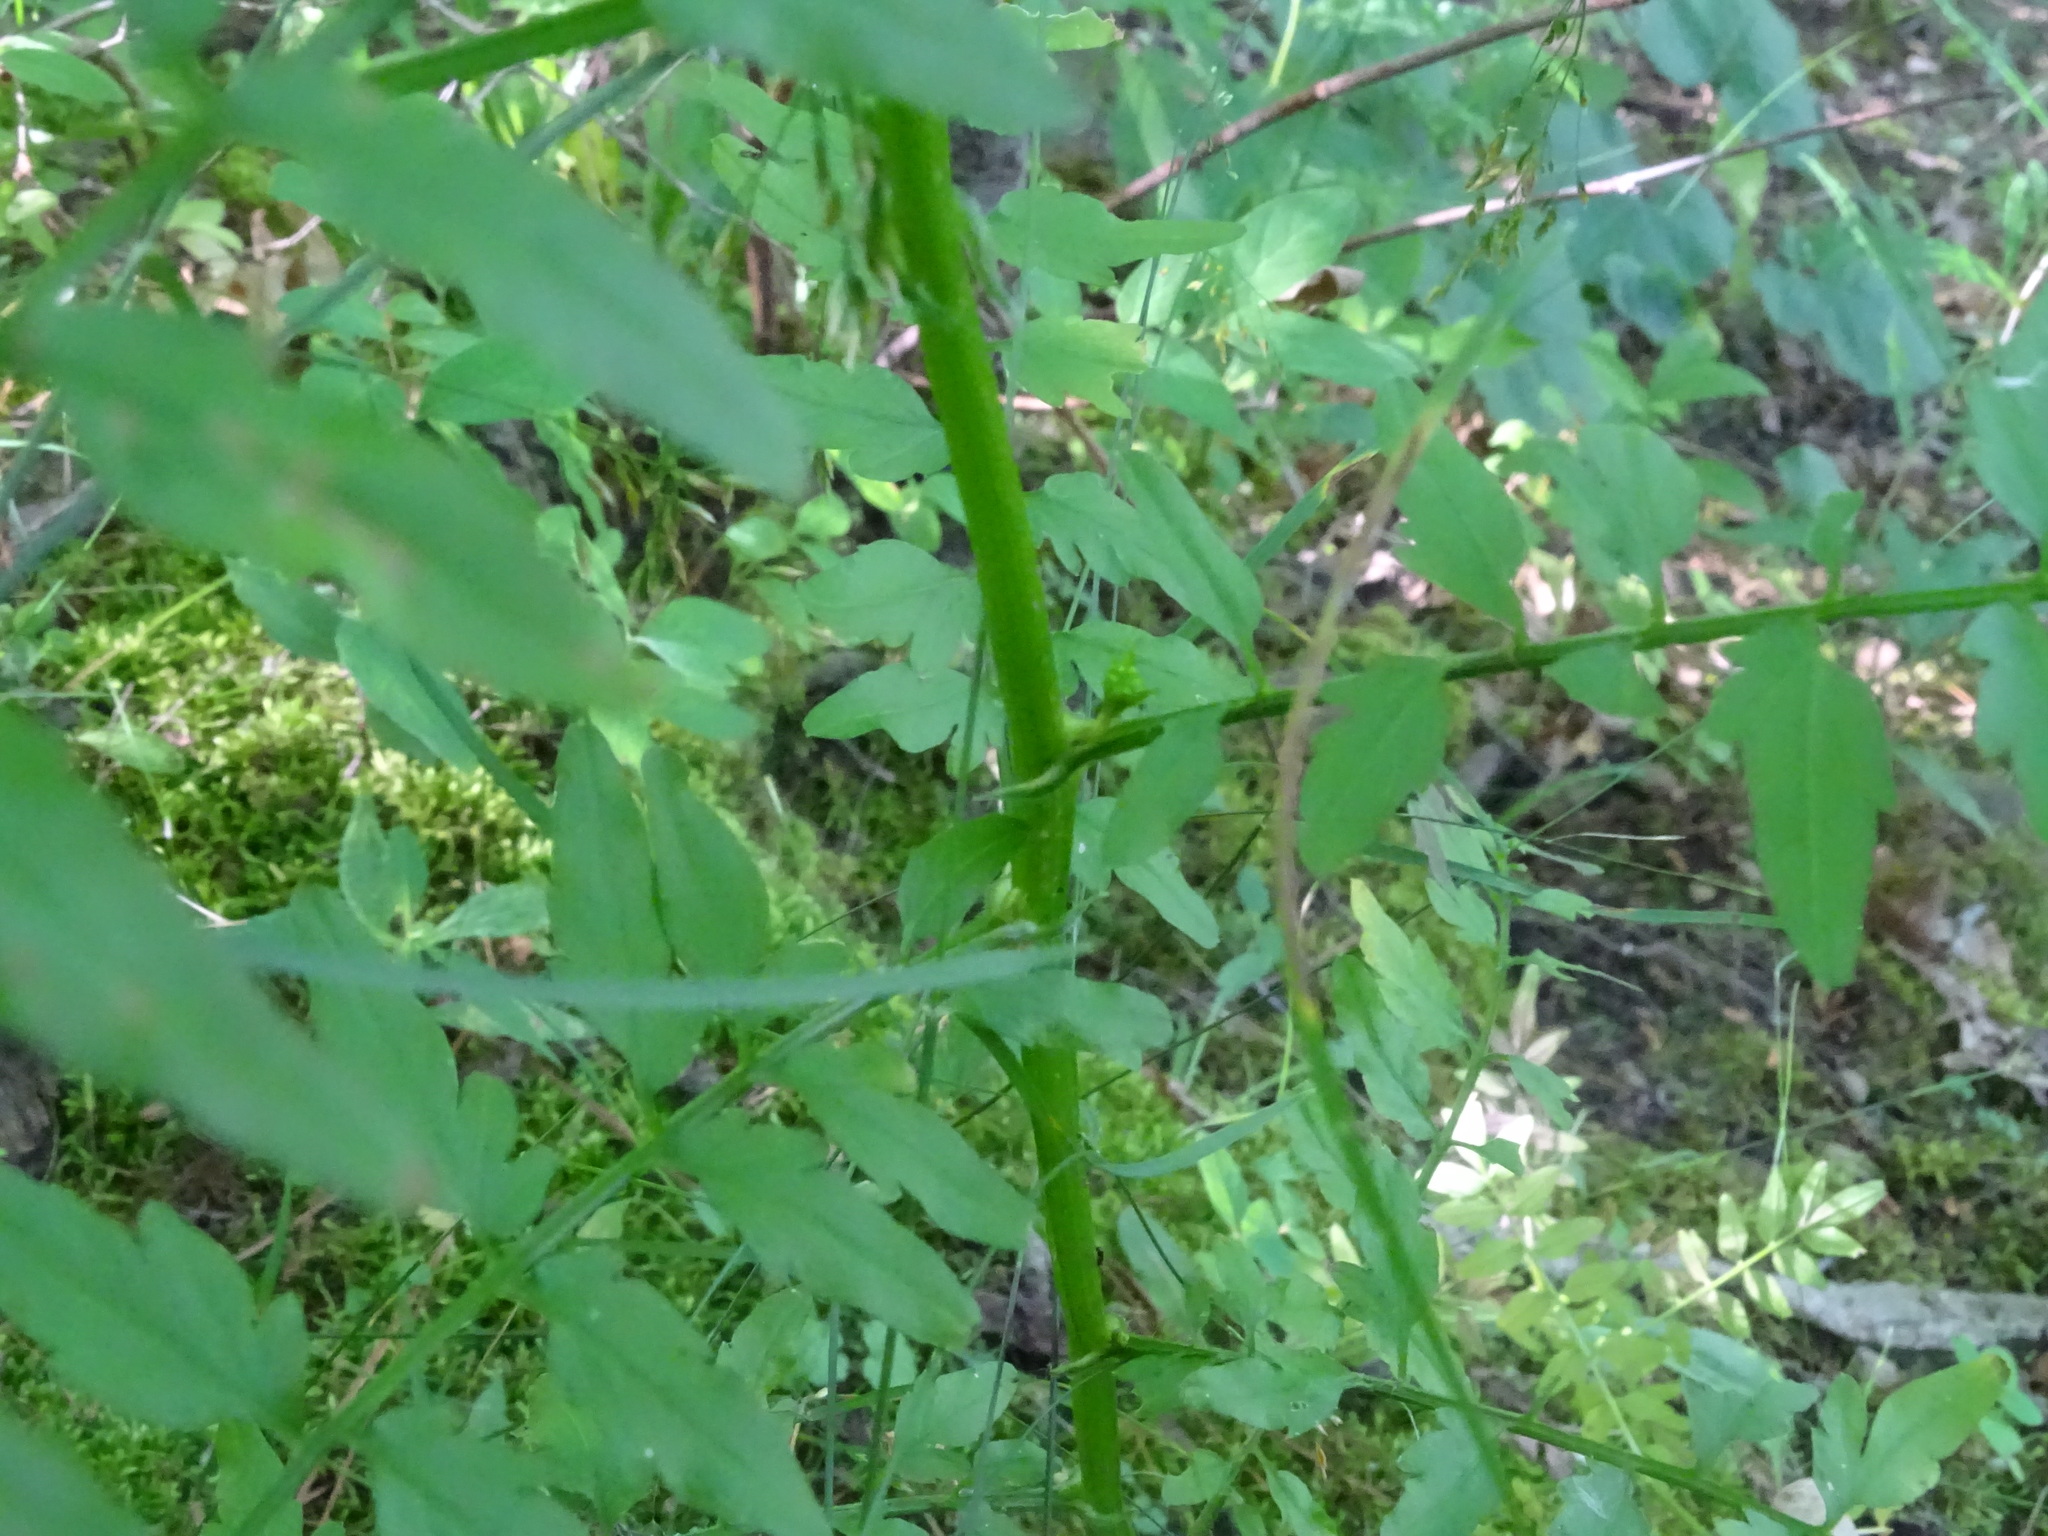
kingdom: Plantae
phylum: Tracheophyta
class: Magnoliopsida
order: Brassicales
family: Brassicaceae
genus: Cardamine
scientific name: Cardamine impatiens
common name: Narrow-leaved bitter-cress
